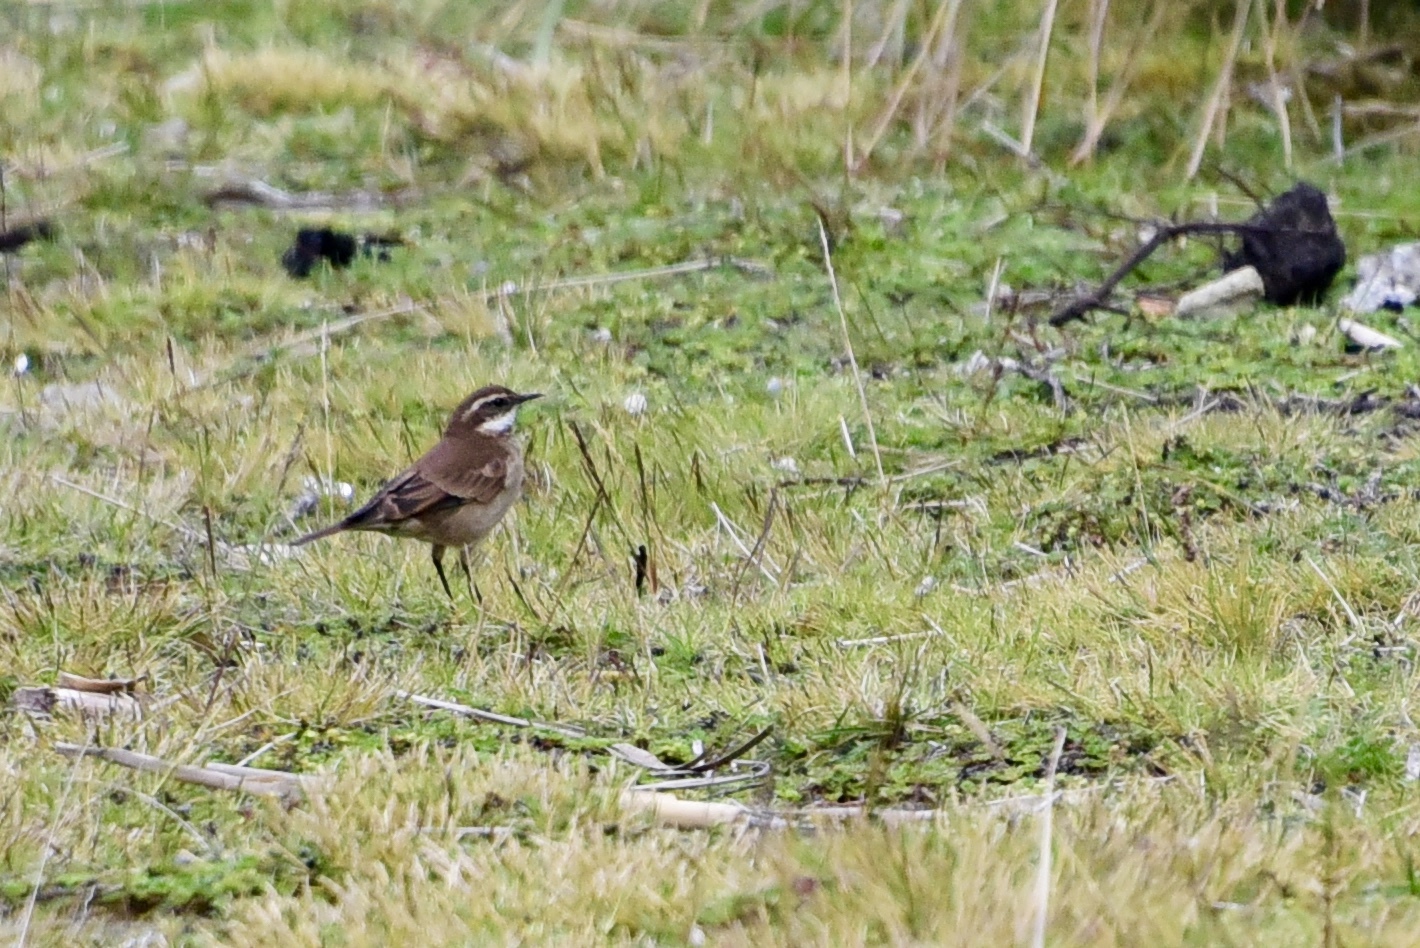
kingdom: Animalia
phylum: Chordata
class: Aves
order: Passeriformes
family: Furnariidae
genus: Cinclodes
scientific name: Cinclodes albidiventris
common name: Chestnut-winged cinclodes
